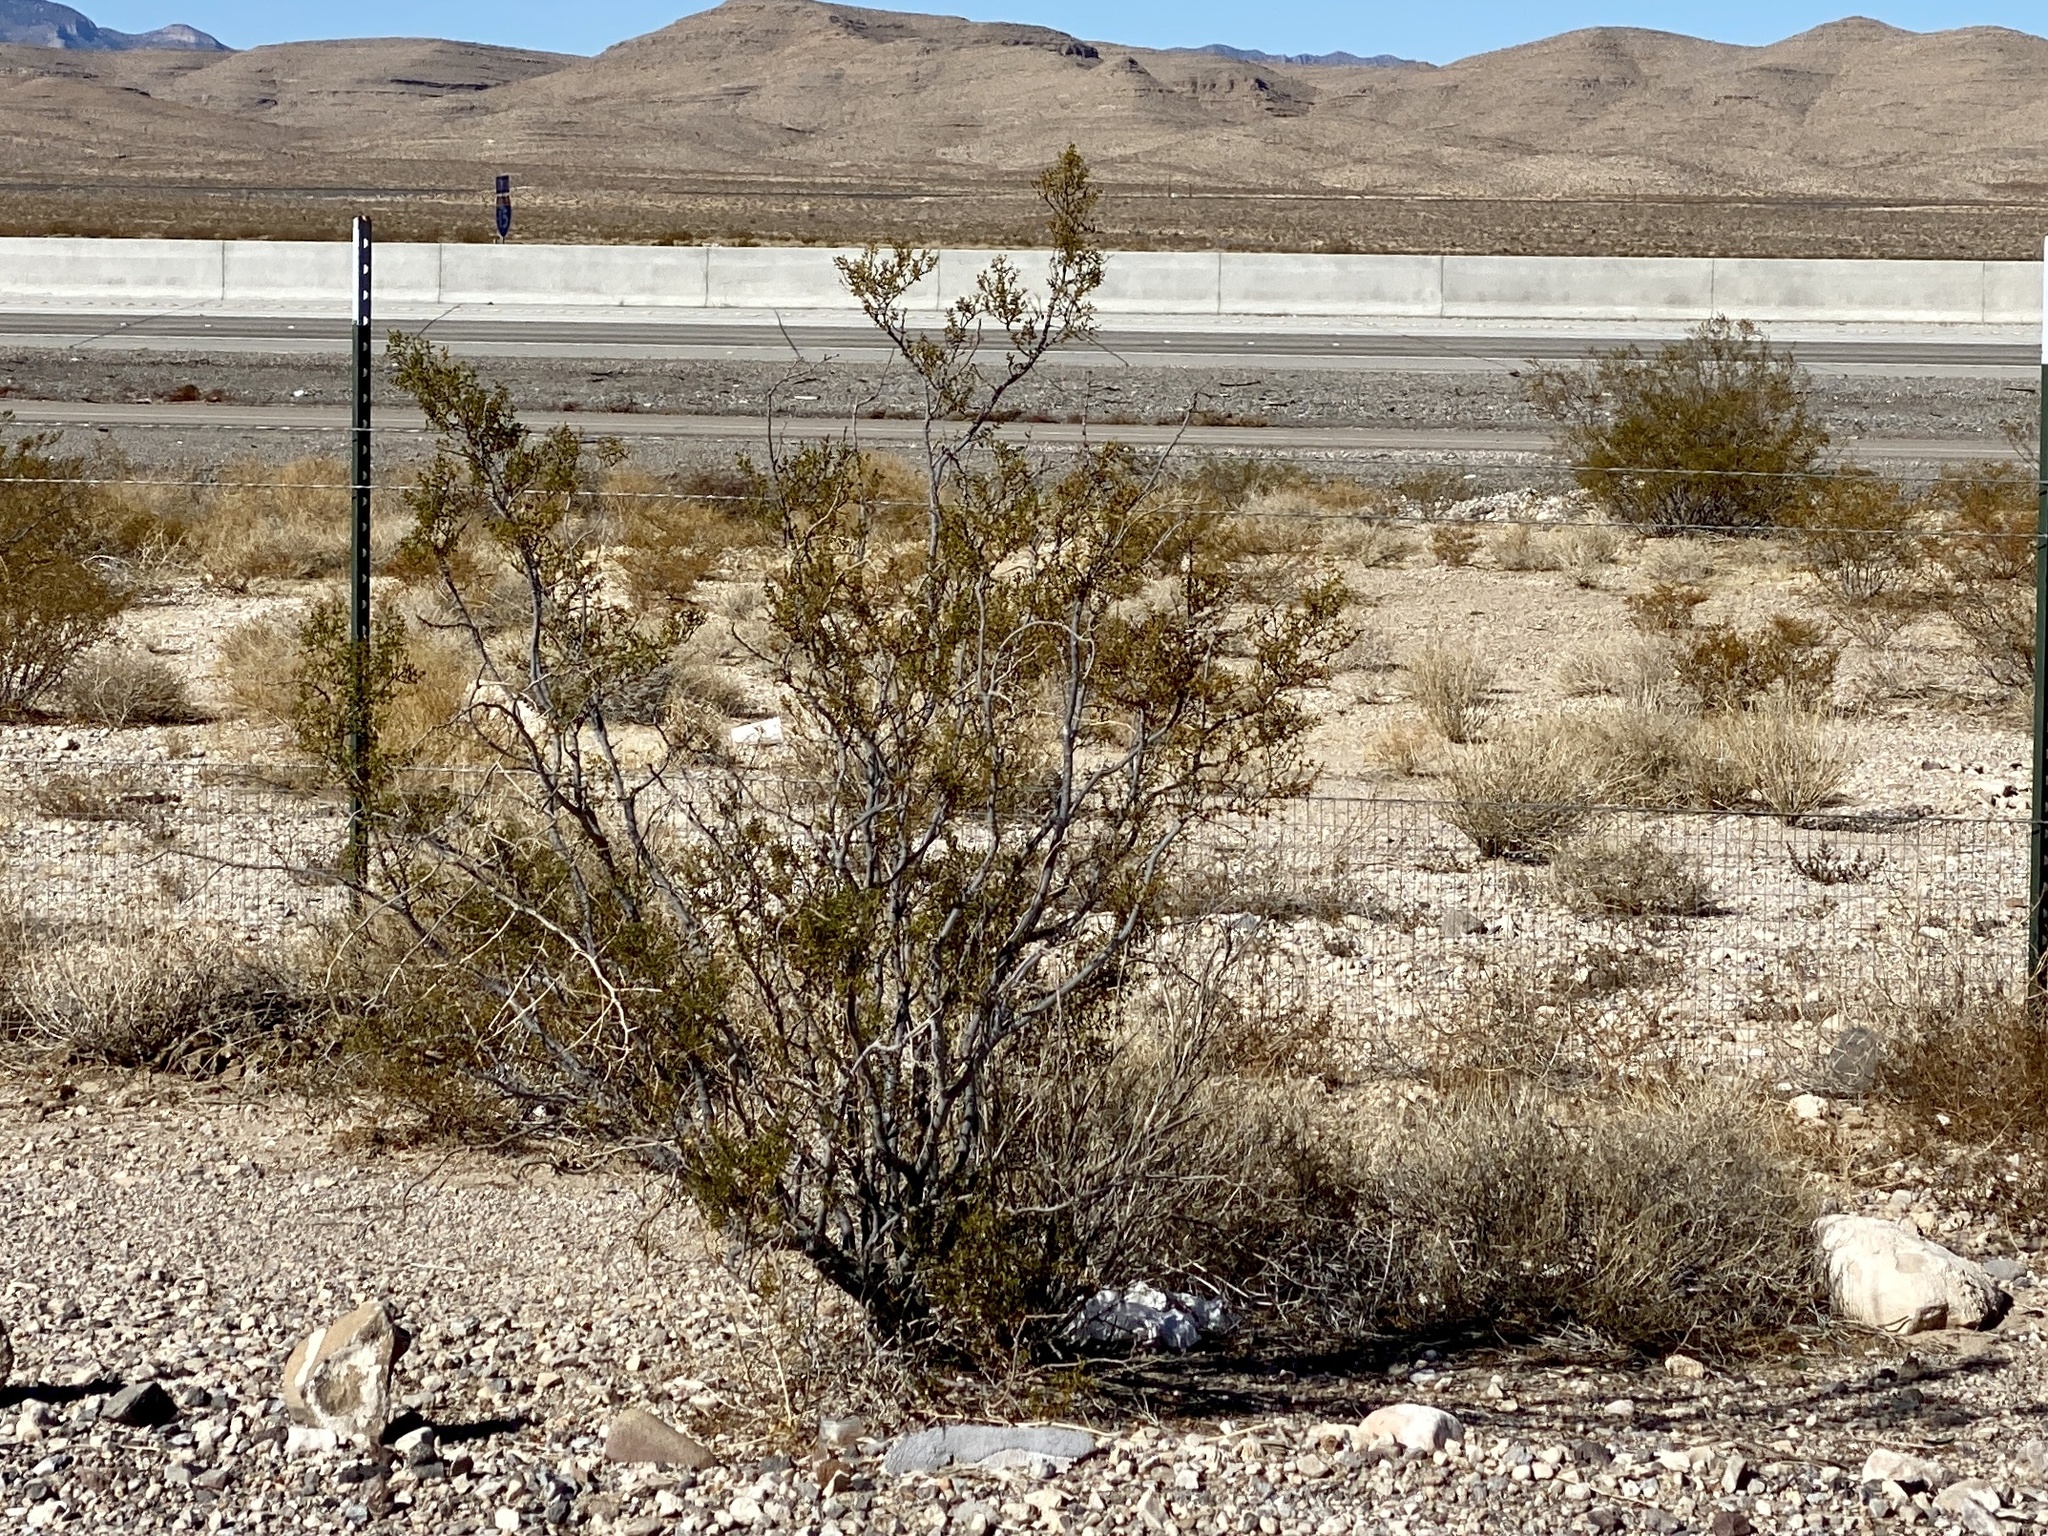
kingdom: Plantae
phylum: Tracheophyta
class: Magnoliopsida
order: Zygophyllales
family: Zygophyllaceae
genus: Larrea
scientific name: Larrea tridentata
